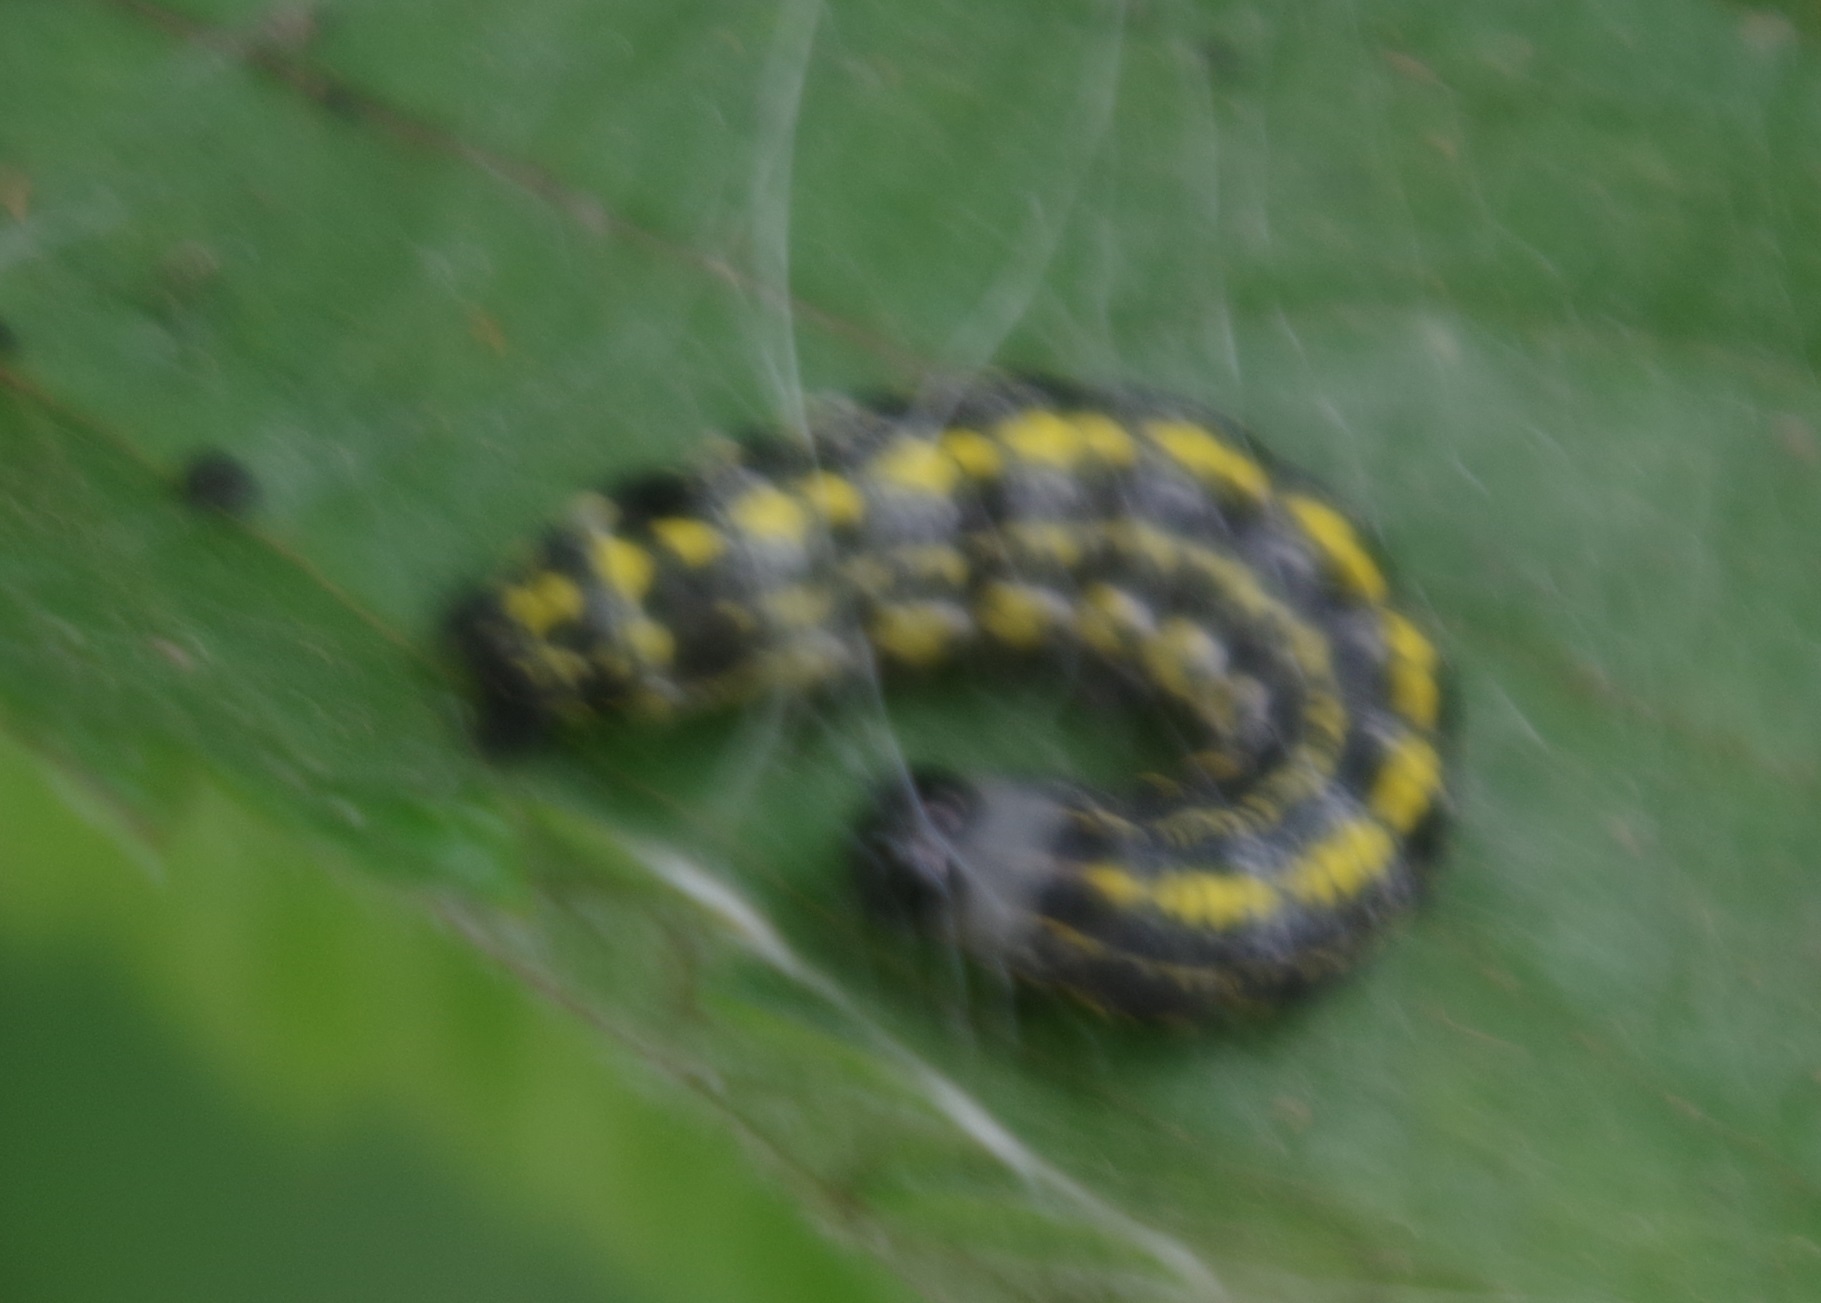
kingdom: Animalia
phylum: Arthropoda
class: Insecta
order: Lepidoptera
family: Noctuidae
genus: Orthosia
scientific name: Orthosia miniosa
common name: Blossom underwing
